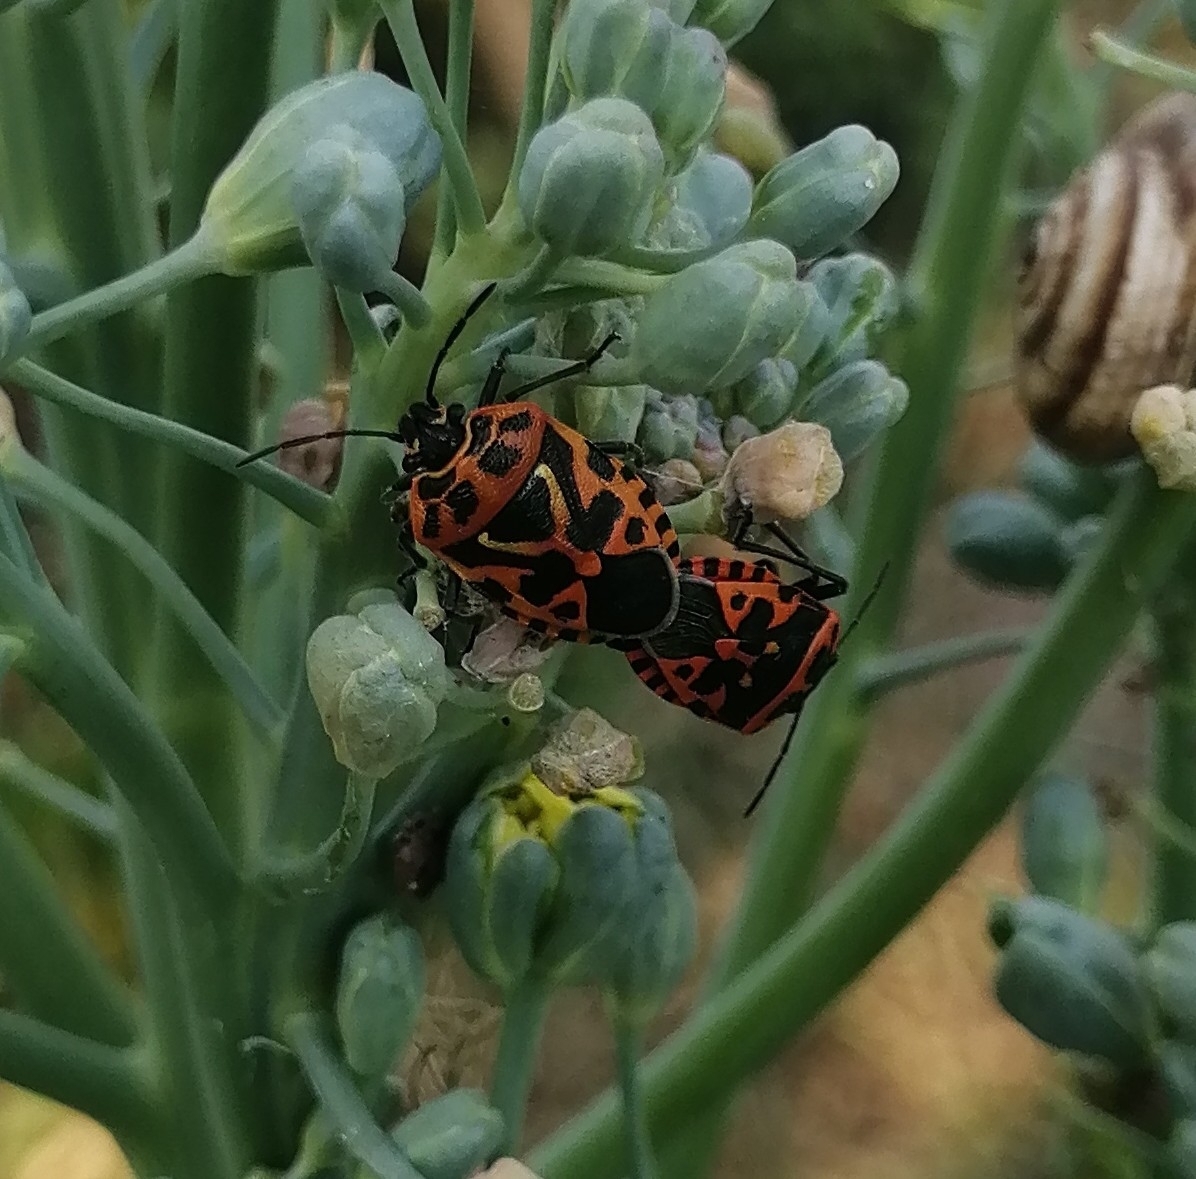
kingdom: Animalia
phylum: Arthropoda
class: Insecta
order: Hemiptera
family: Pentatomidae
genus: Eurydema
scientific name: Eurydema ventralis
